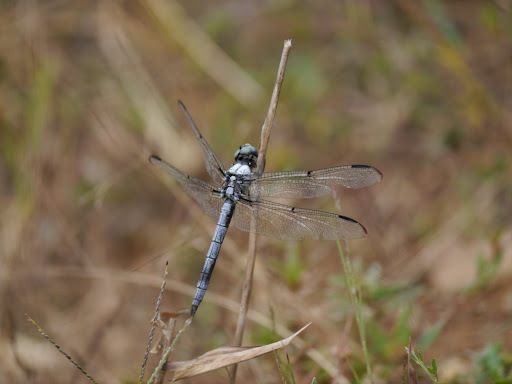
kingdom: Animalia
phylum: Arthropoda
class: Insecta
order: Odonata
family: Libellulidae
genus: Libellula
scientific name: Libellula vibrans
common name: Great blue skimmer
